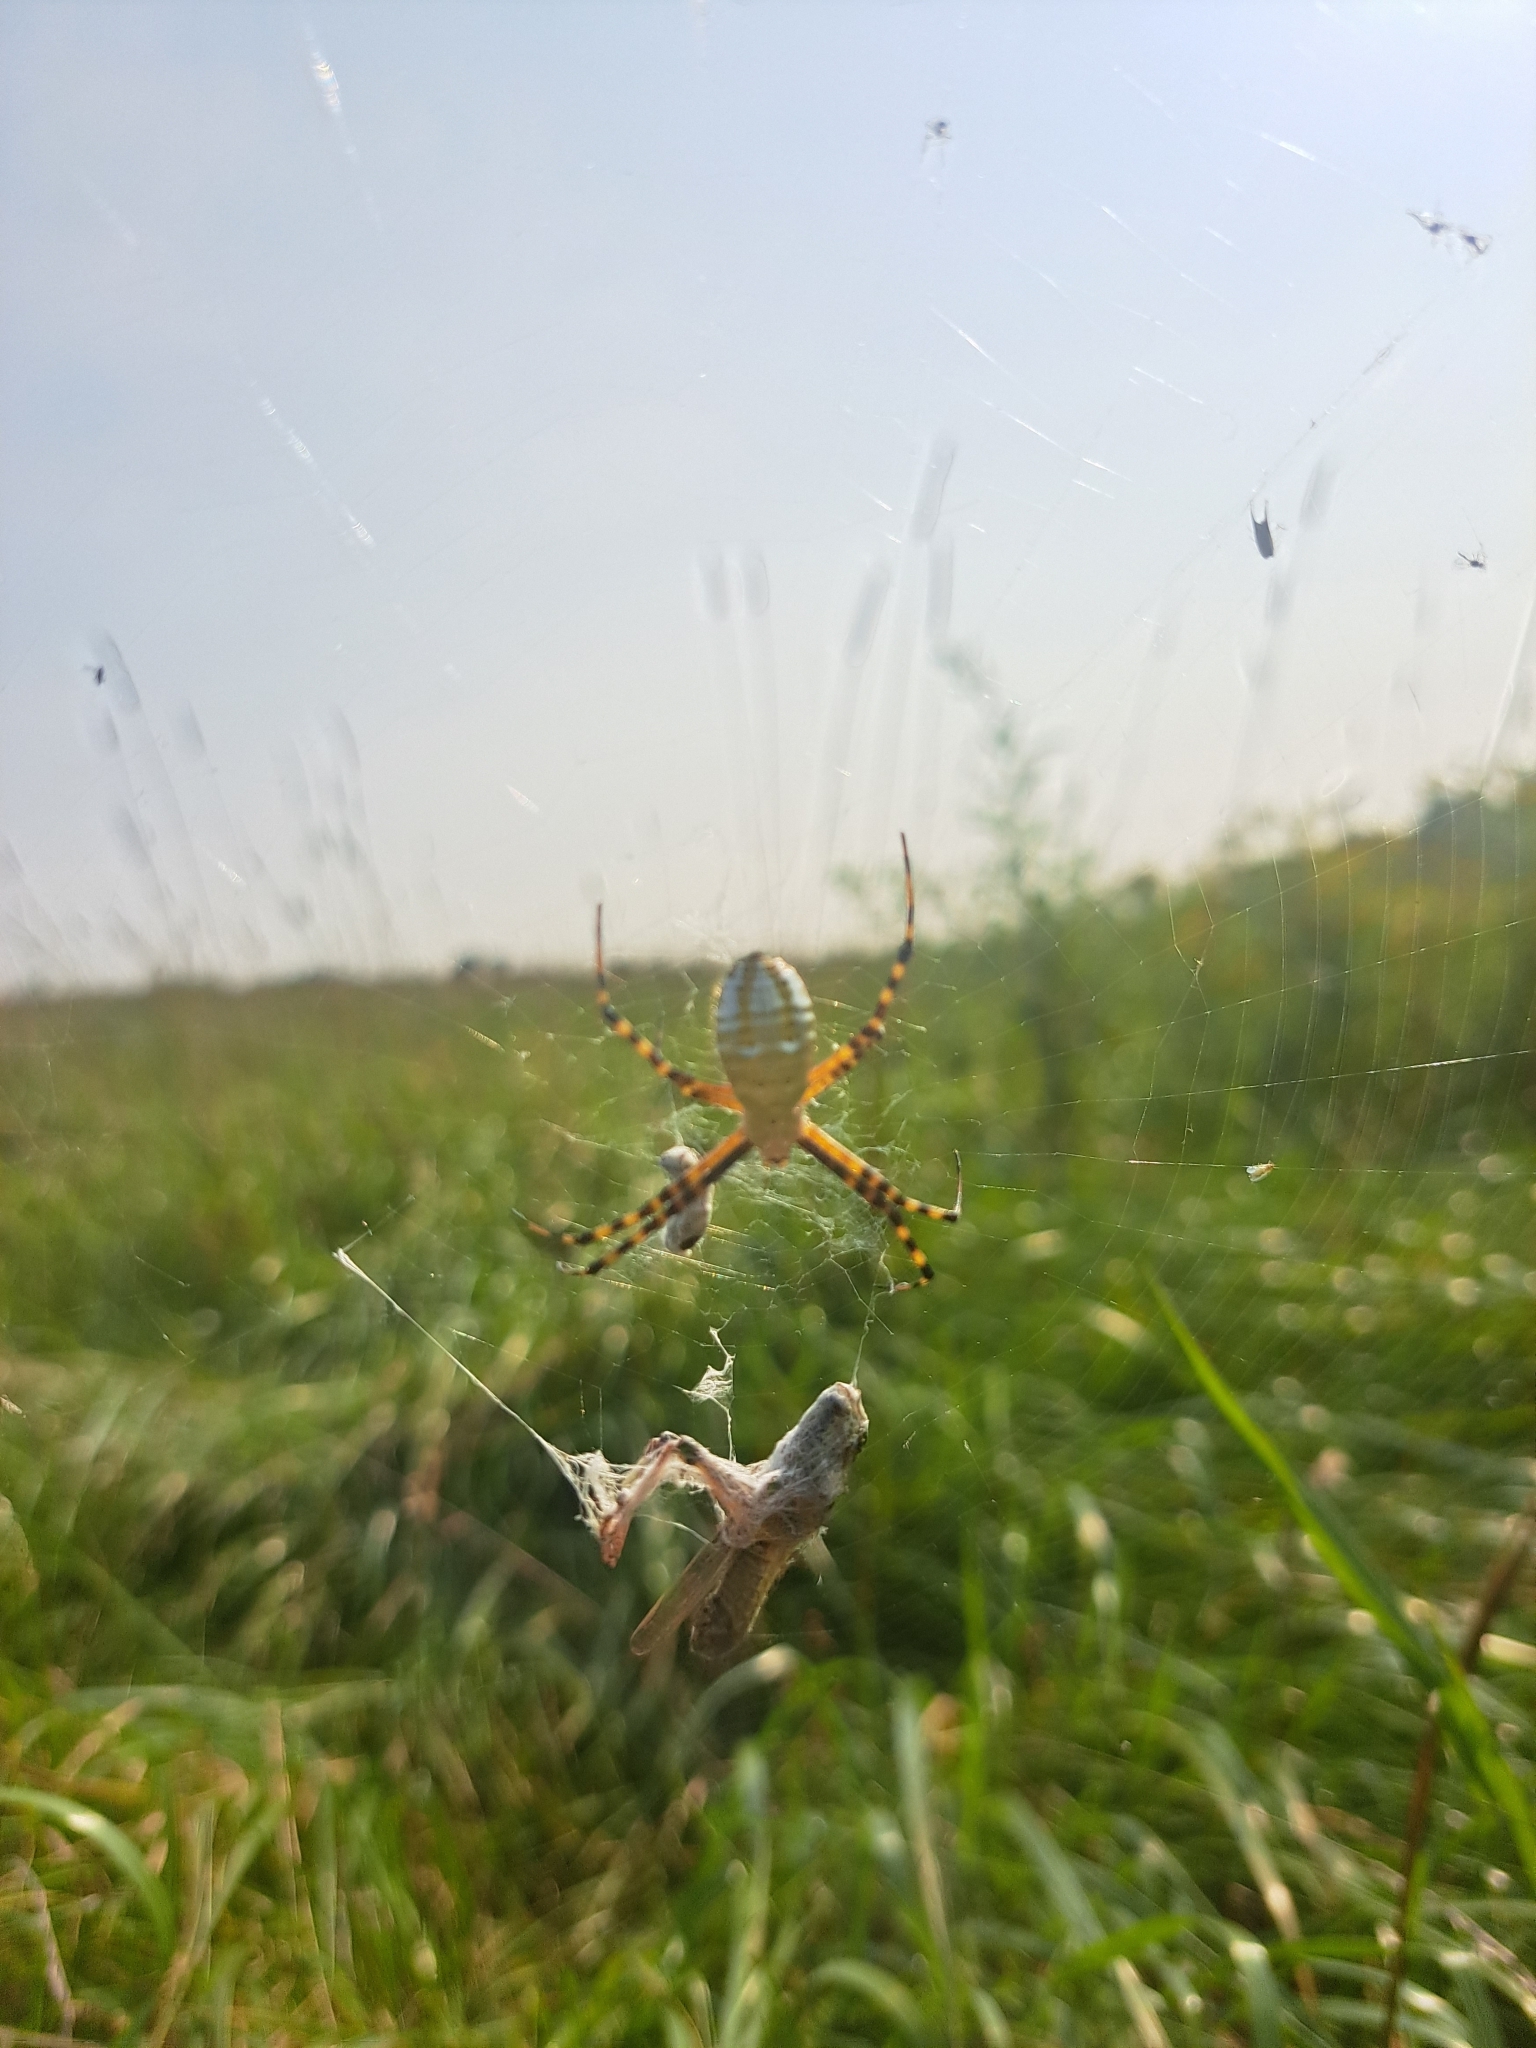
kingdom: Animalia
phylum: Arthropoda
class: Arachnida
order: Araneae
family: Araneidae
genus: Argiope
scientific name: Argiope trifasciata
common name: Banded garden spider
